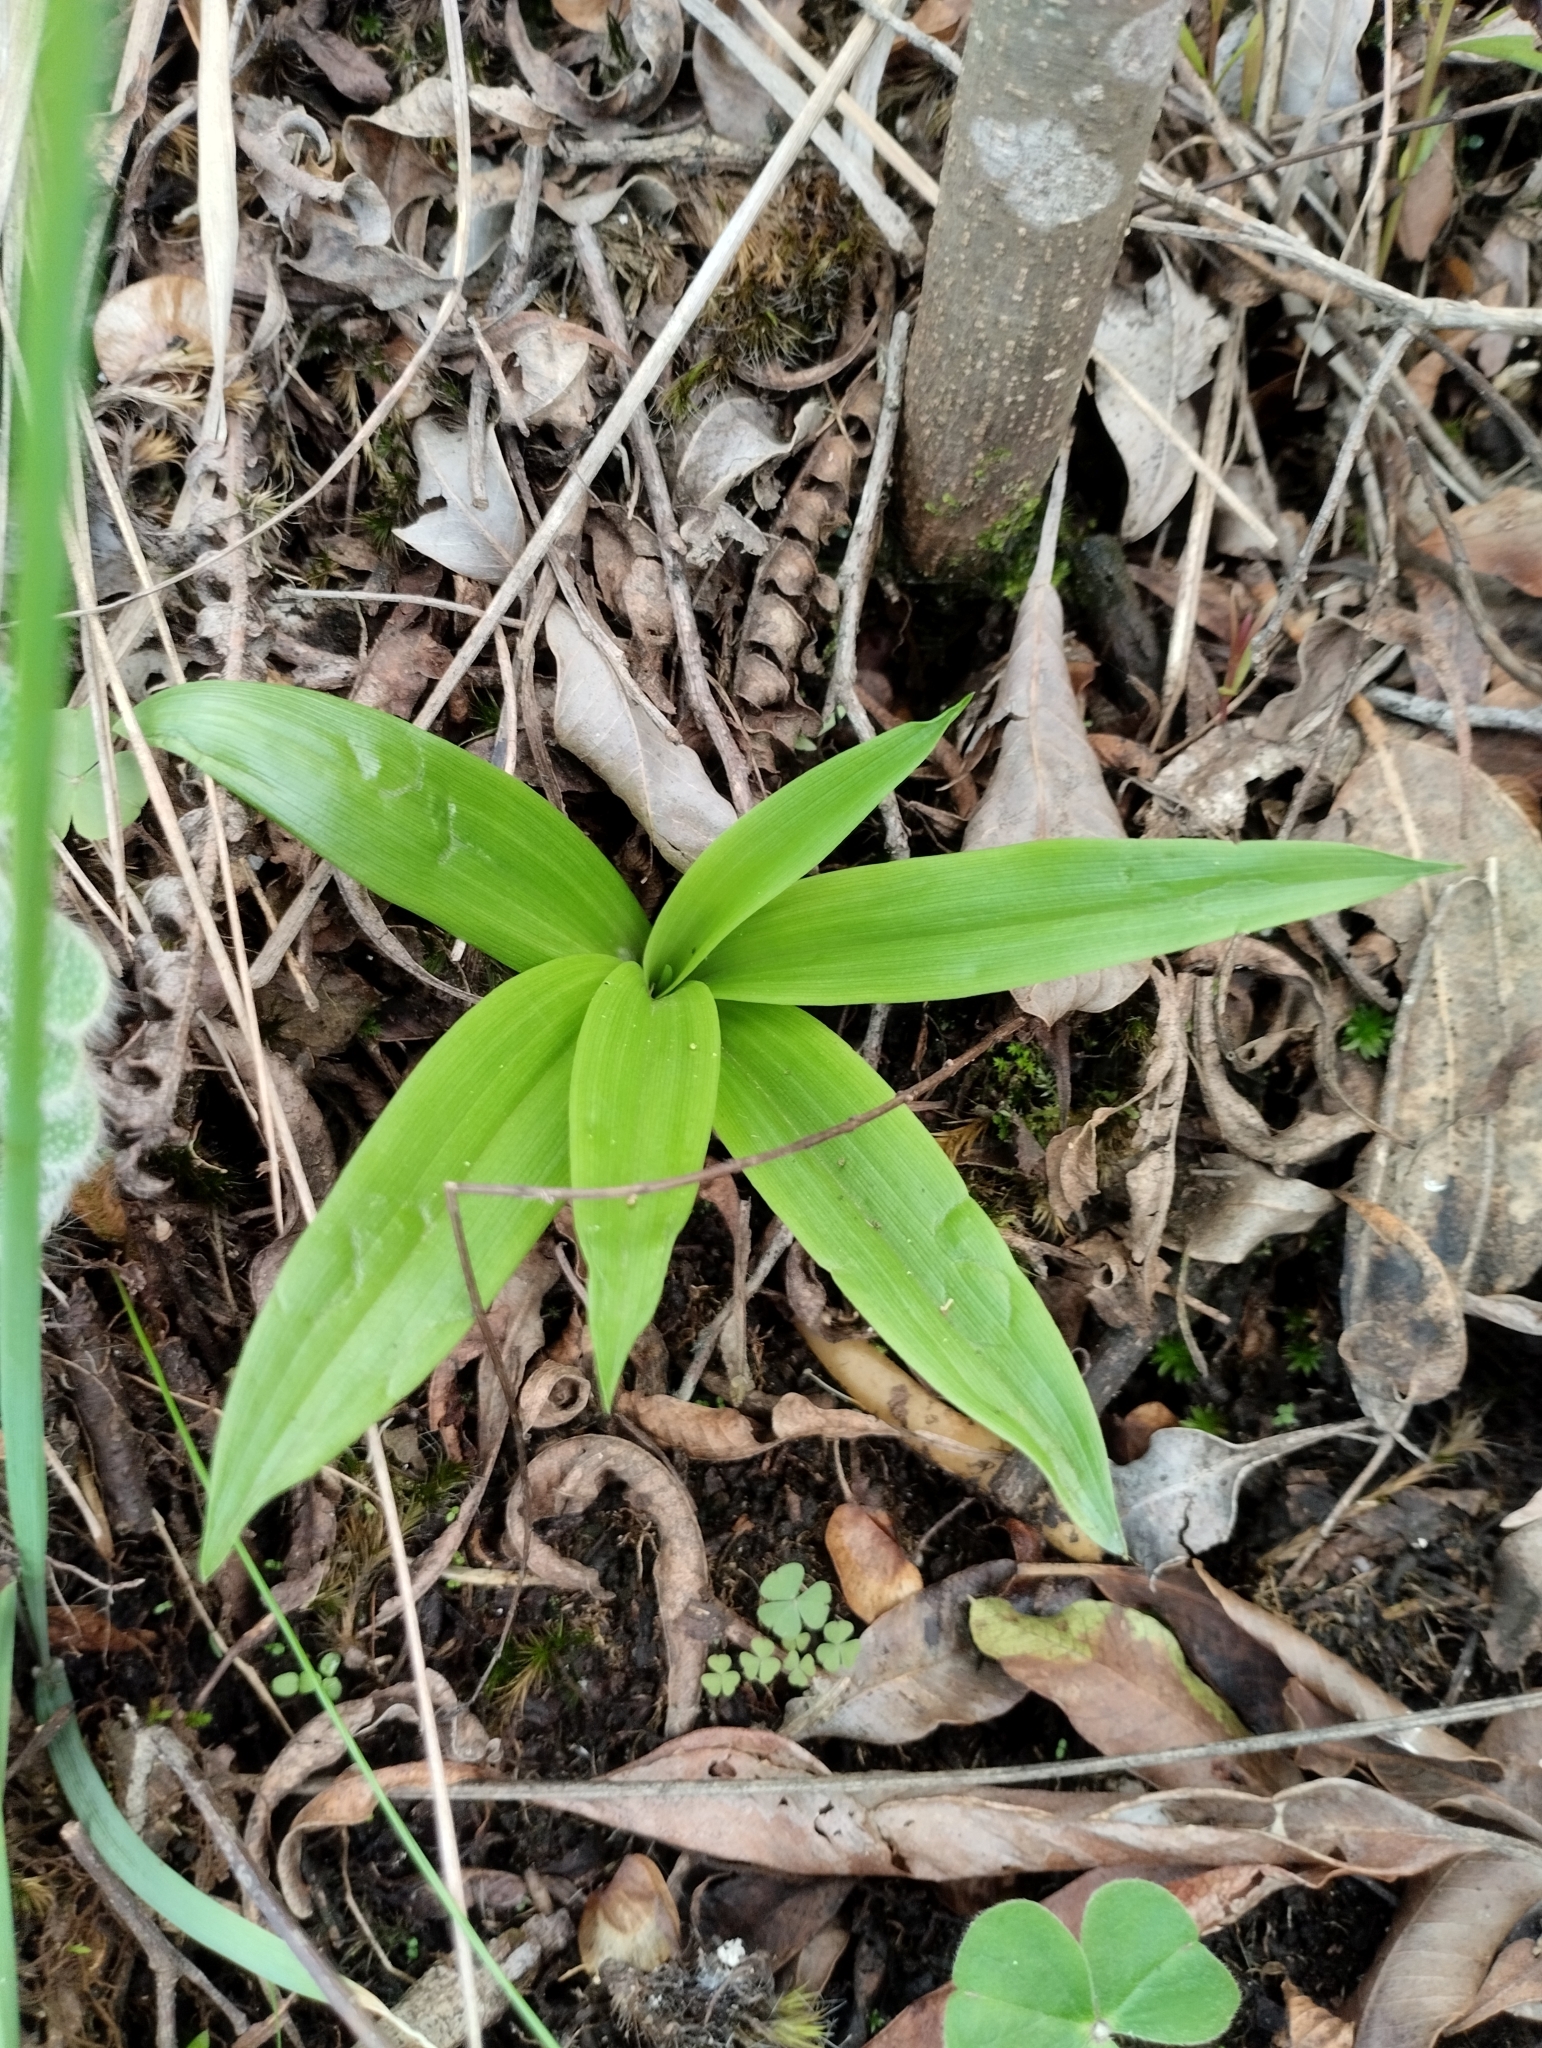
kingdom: Plantae
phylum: Tracheophyta
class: Liliopsida
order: Asparagales
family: Orchidaceae
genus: Chloraea
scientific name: Chloraea membranacea
